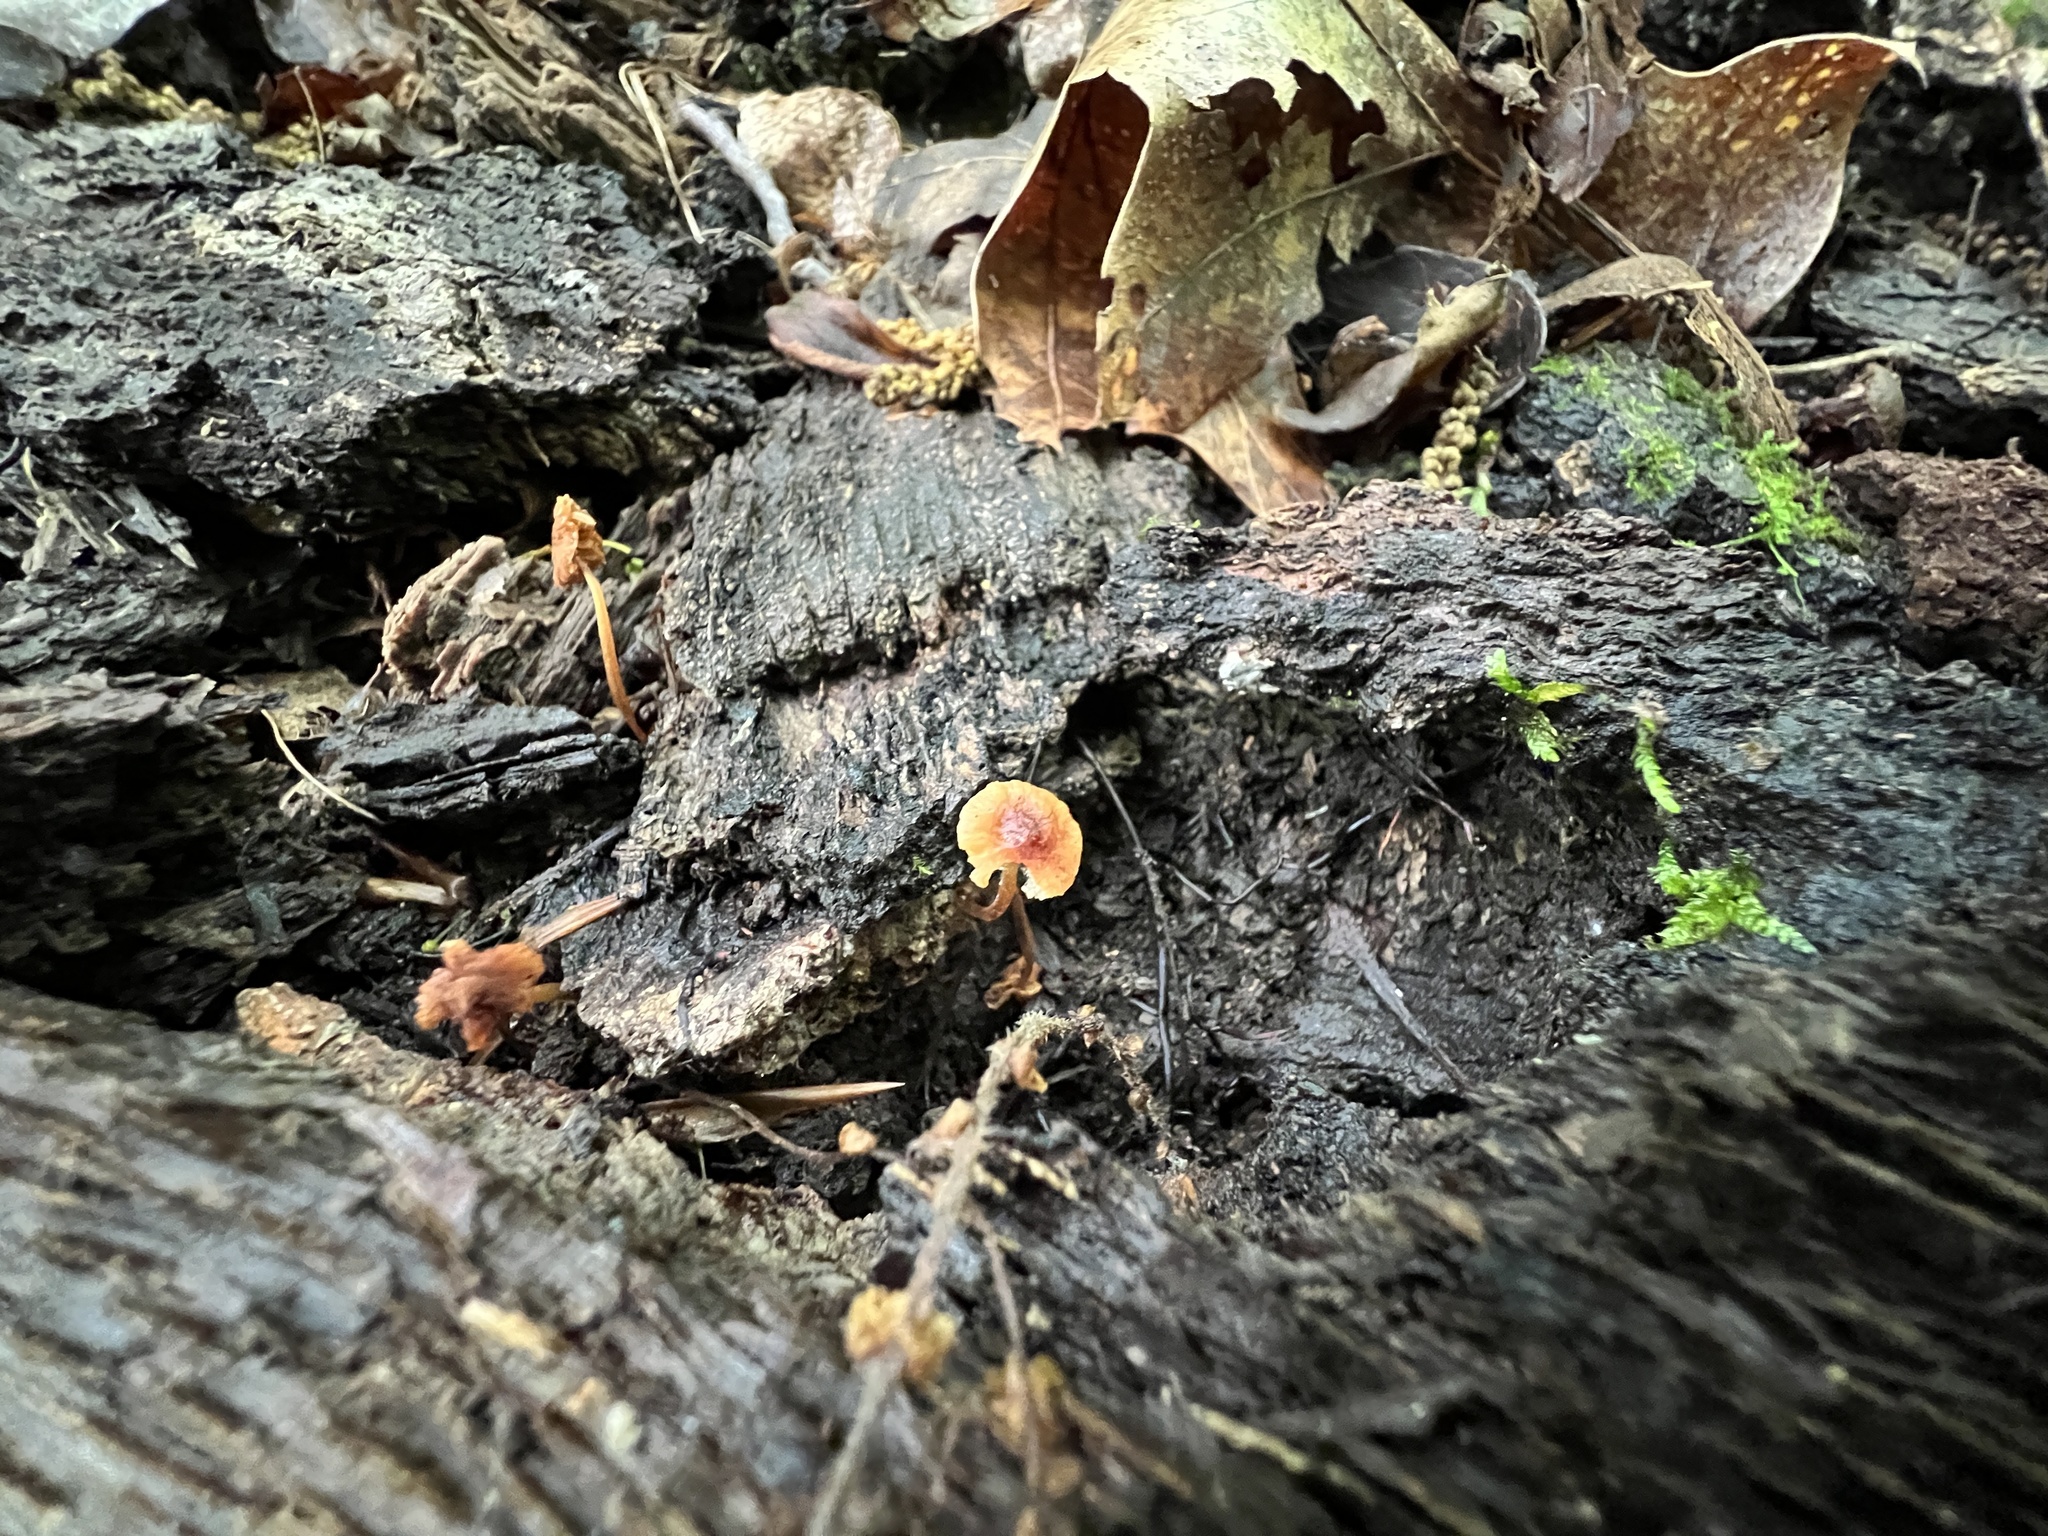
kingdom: Fungi
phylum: Basidiomycota
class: Agaricomycetes
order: Agaricales
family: Marasmiaceae
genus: Marasmius
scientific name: Marasmius sullivantii
